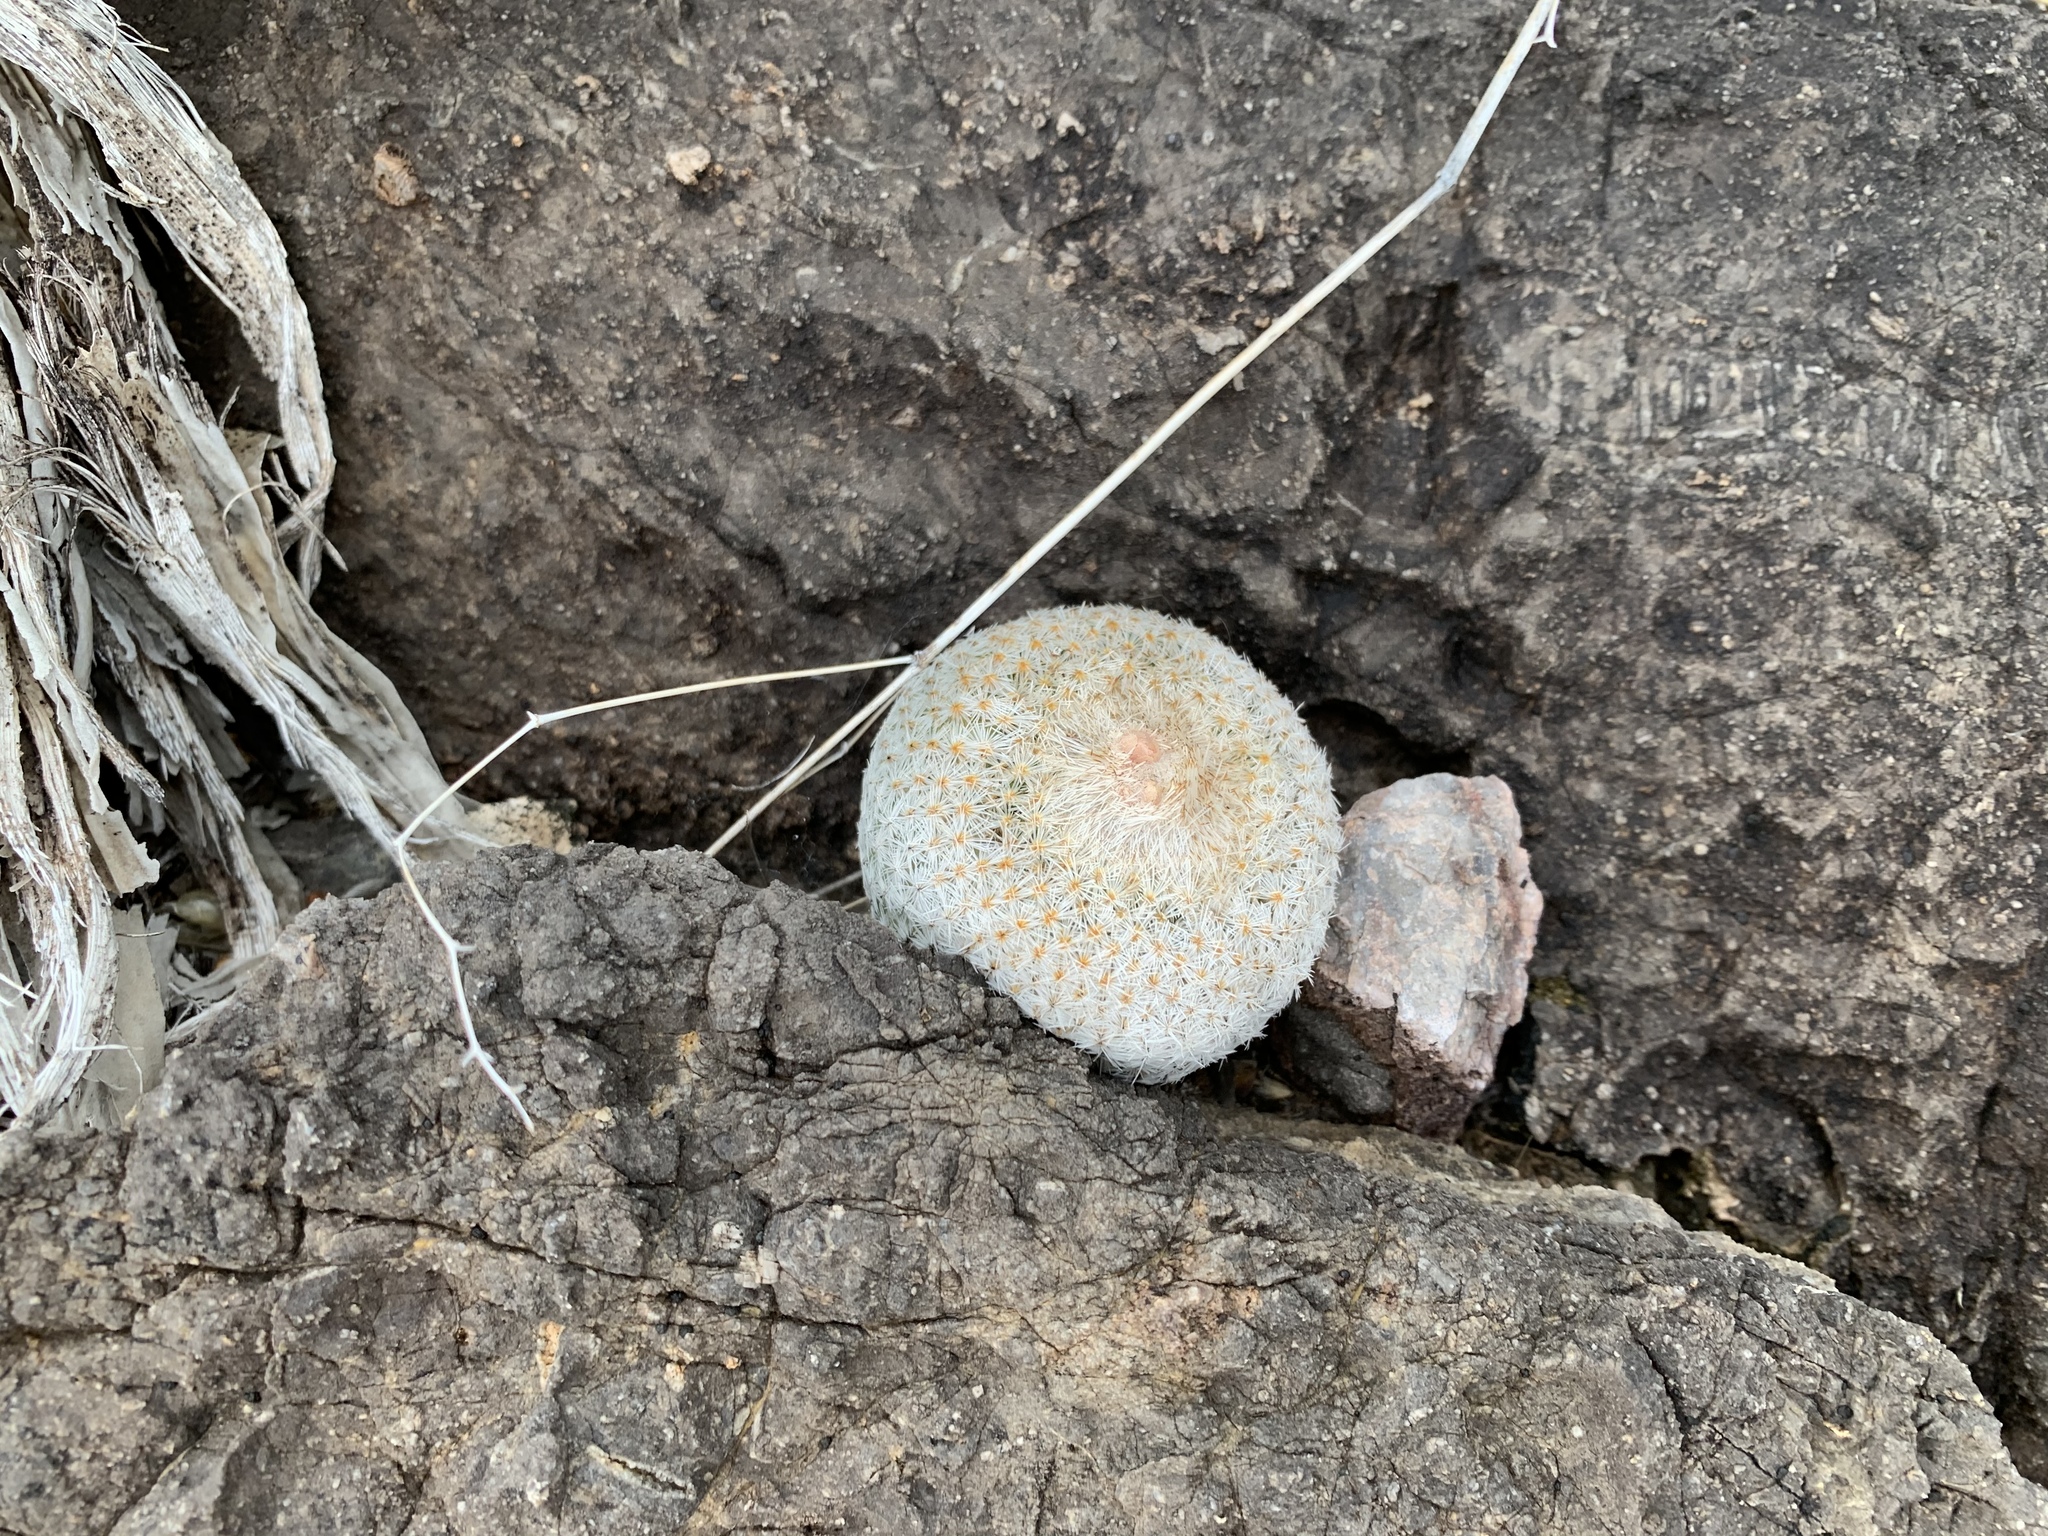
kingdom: Plantae
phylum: Tracheophyta
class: Magnoliopsida
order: Caryophyllales
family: Cactaceae
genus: Epithelantha
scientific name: Epithelantha micromeris
